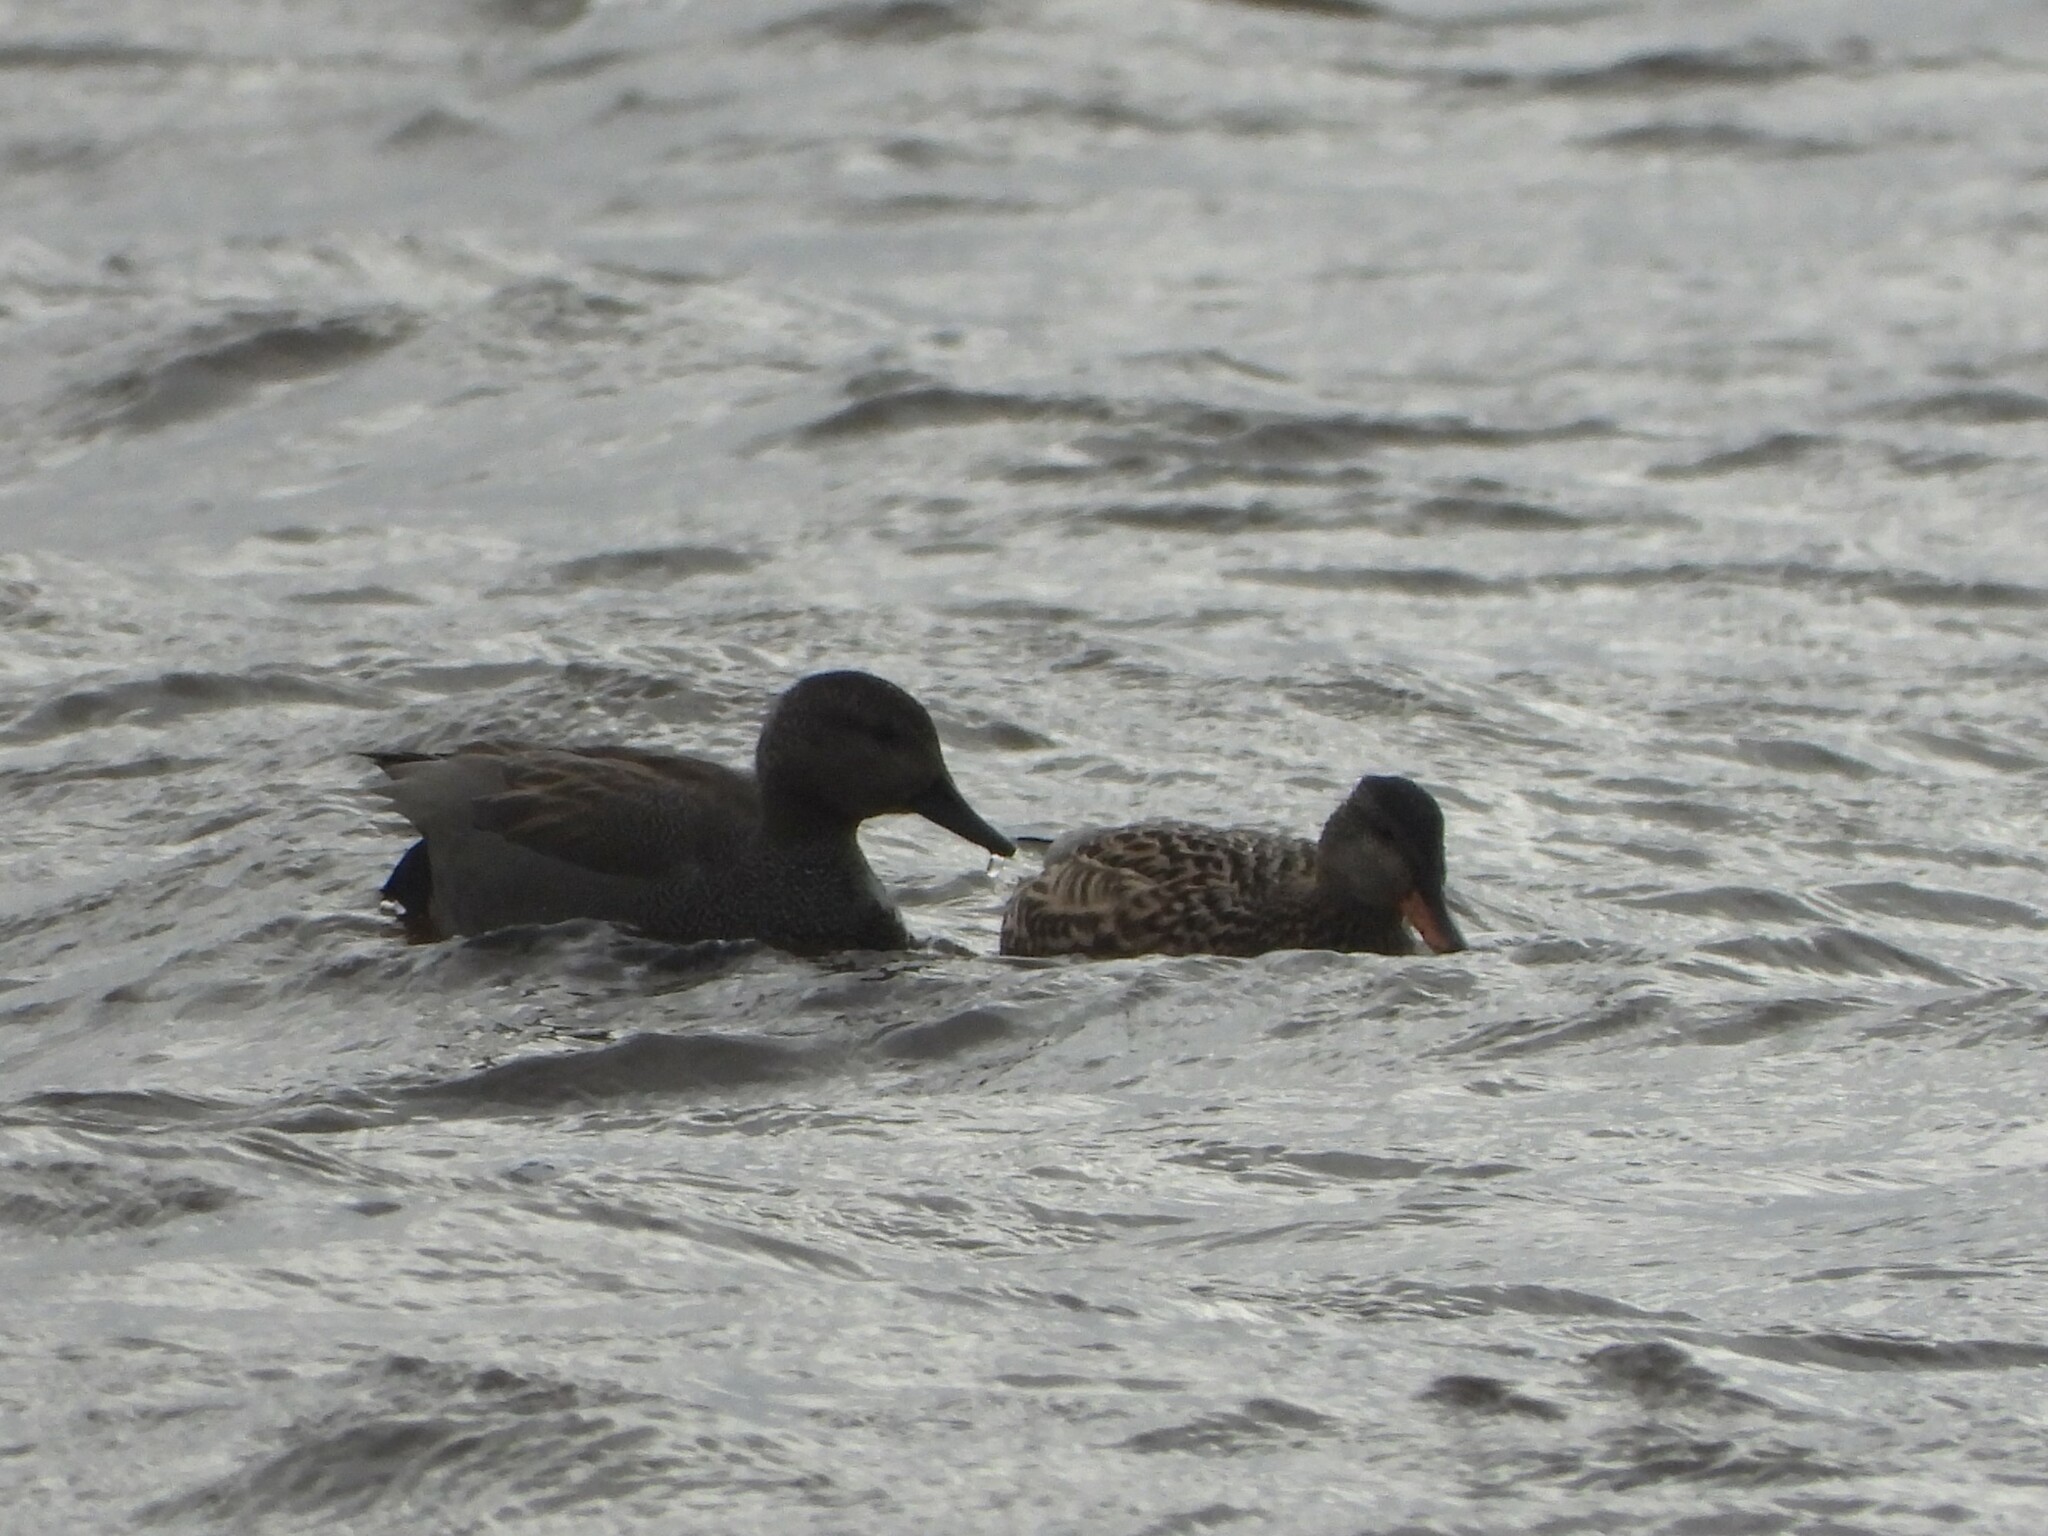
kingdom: Animalia
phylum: Chordata
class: Aves
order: Anseriformes
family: Anatidae
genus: Mareca
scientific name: Mareca strepera
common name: Gadwall
